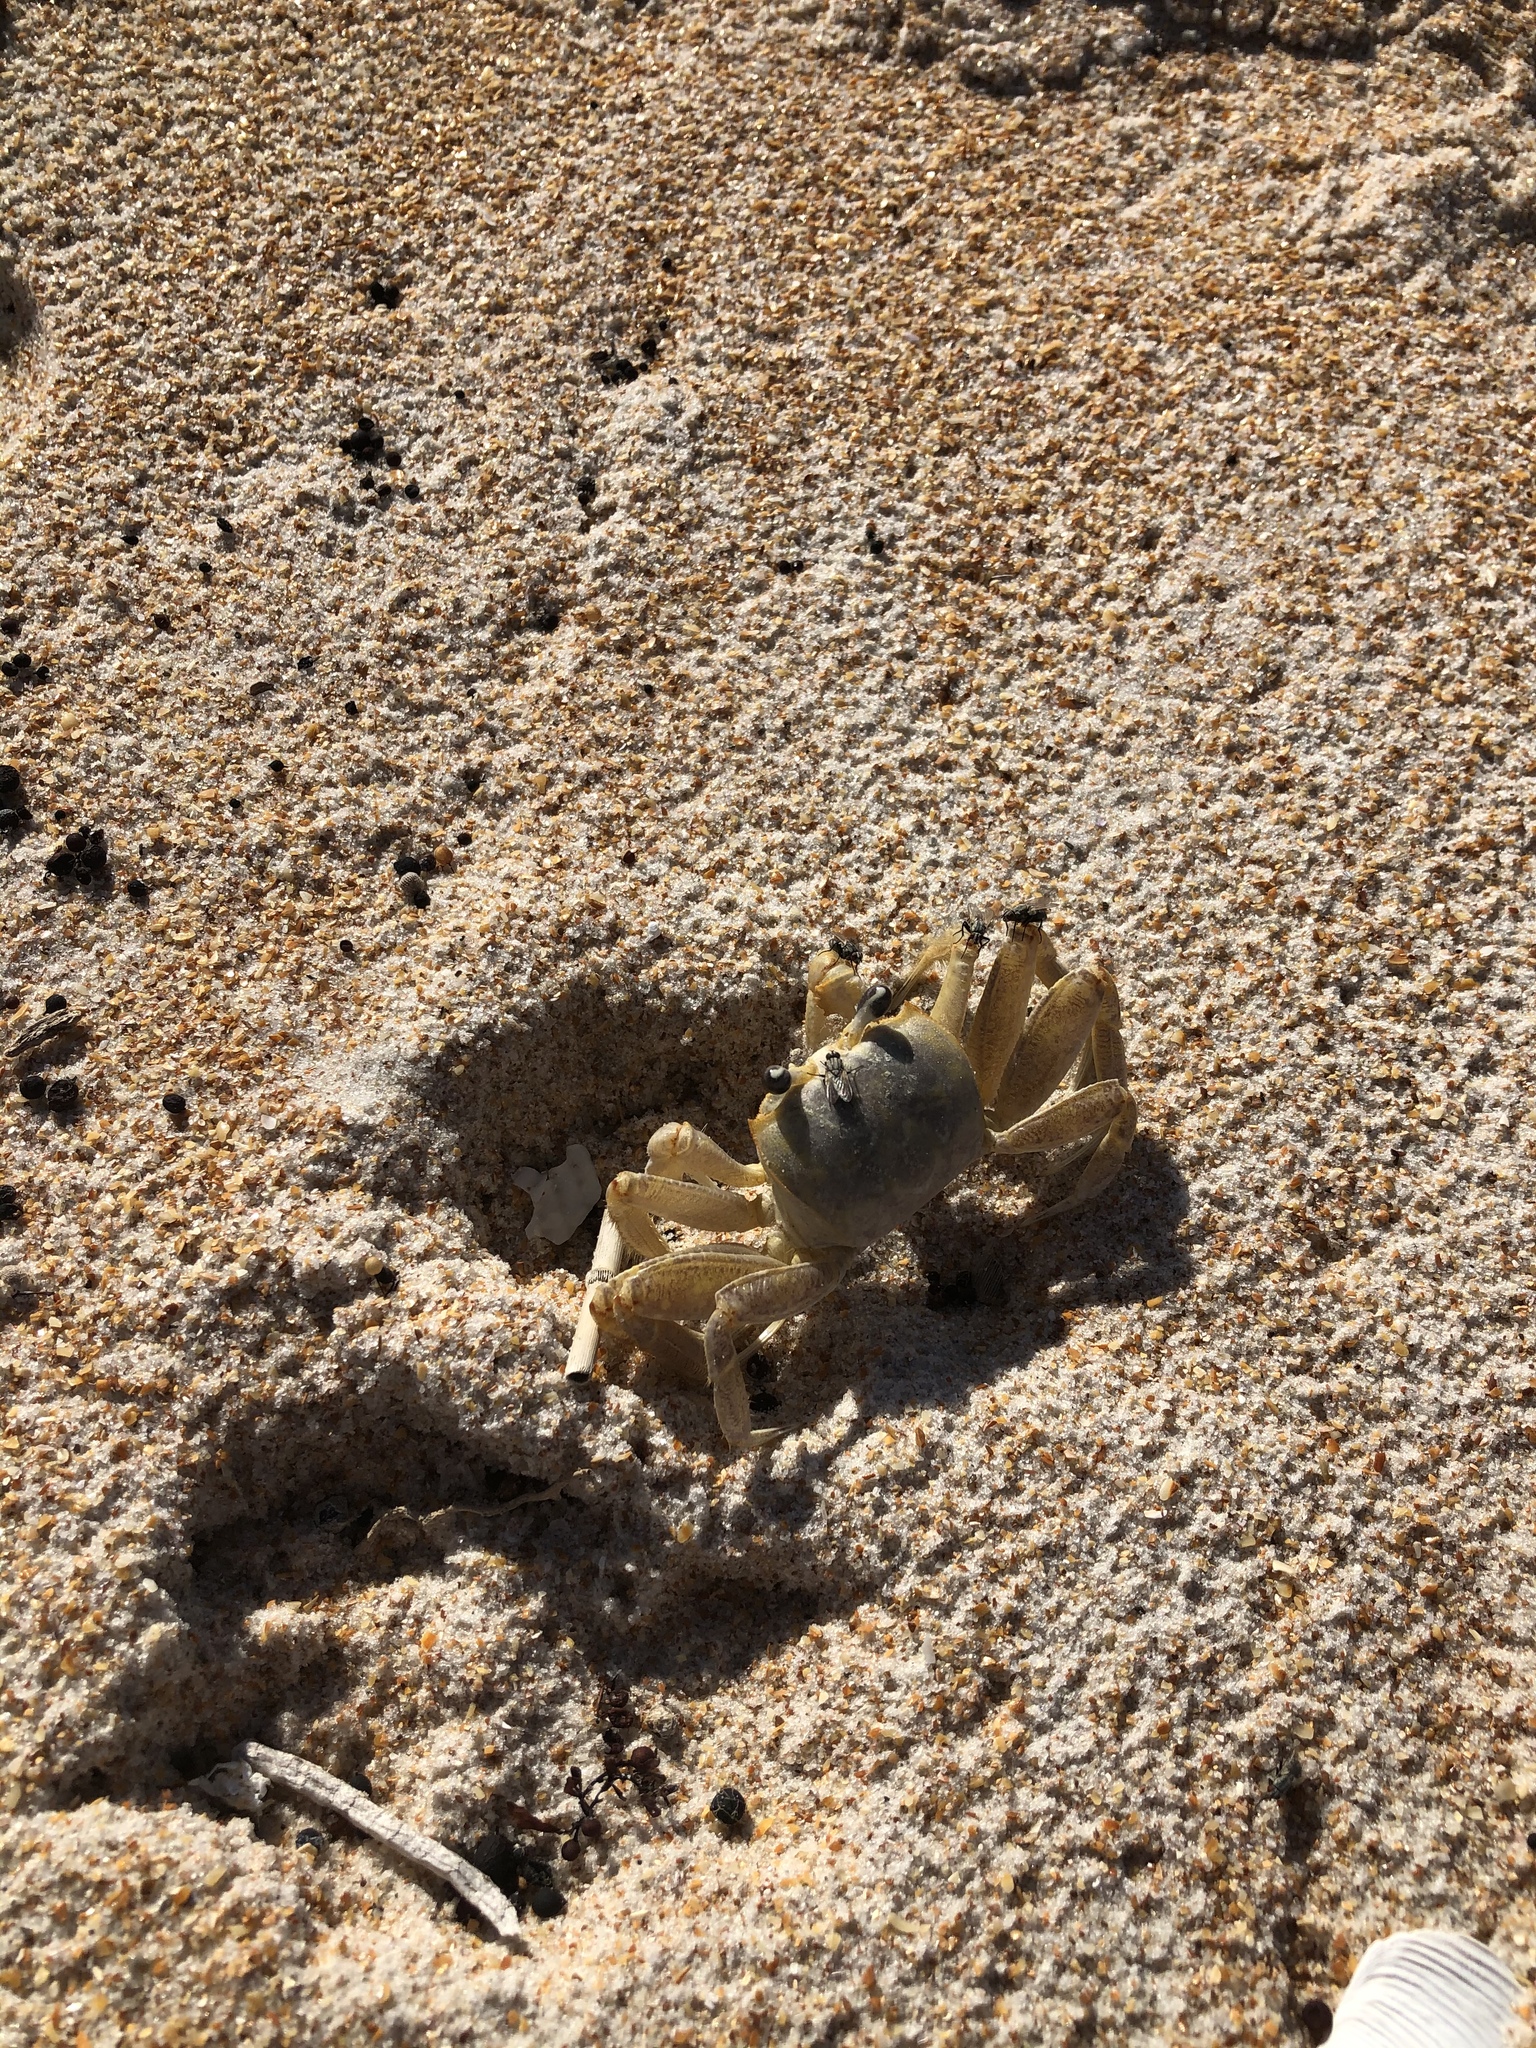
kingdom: Animalia
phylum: Arthropoda
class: Malacostraca
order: Decapoda
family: Ocypodidae
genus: Ocypode
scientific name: Ocypode quadrata
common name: Ghost crab
